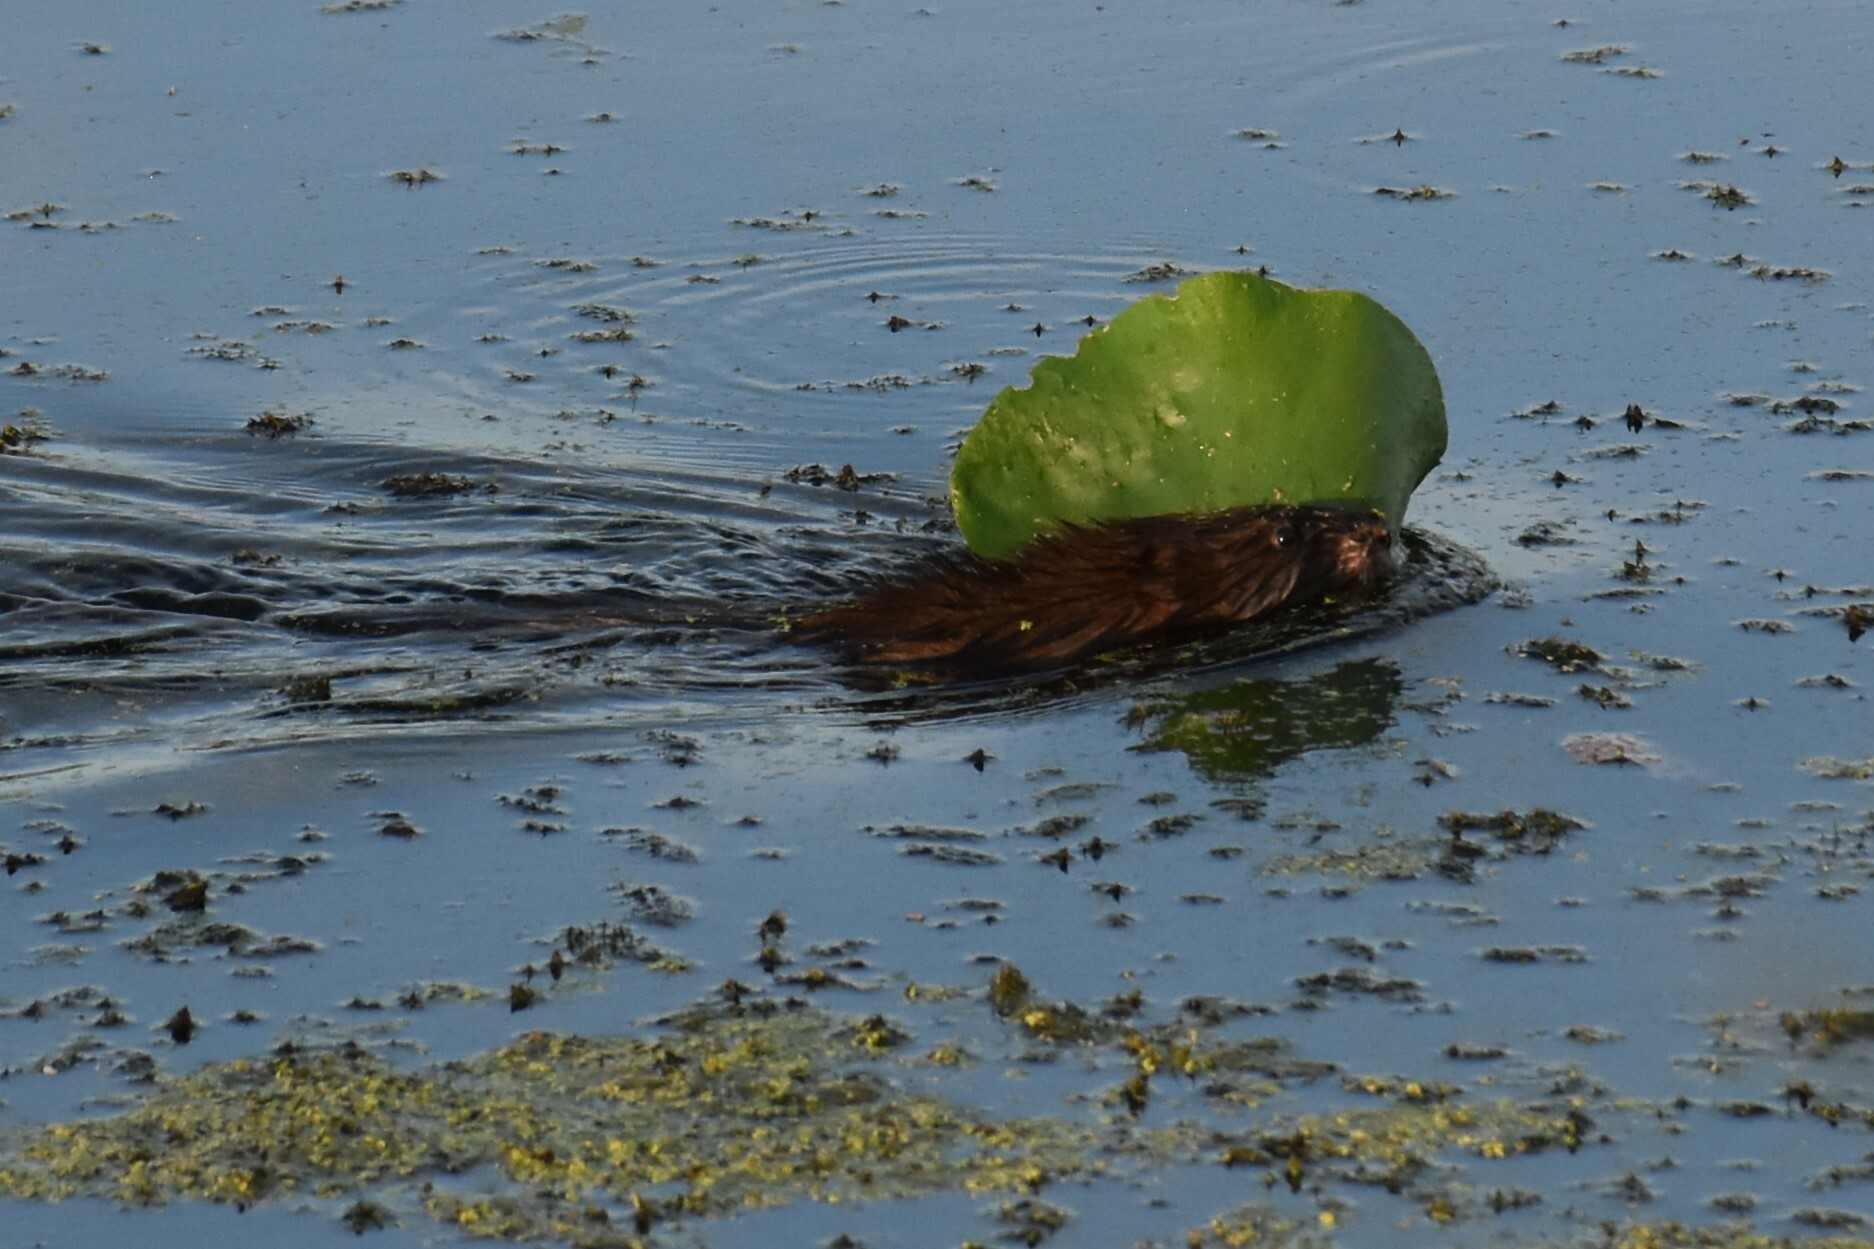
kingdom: Animalia
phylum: Chordata
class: Mammalia
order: Rodentia
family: Cricetidae
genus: Ondatra
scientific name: Ondatra zibethicus
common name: Muskrat
